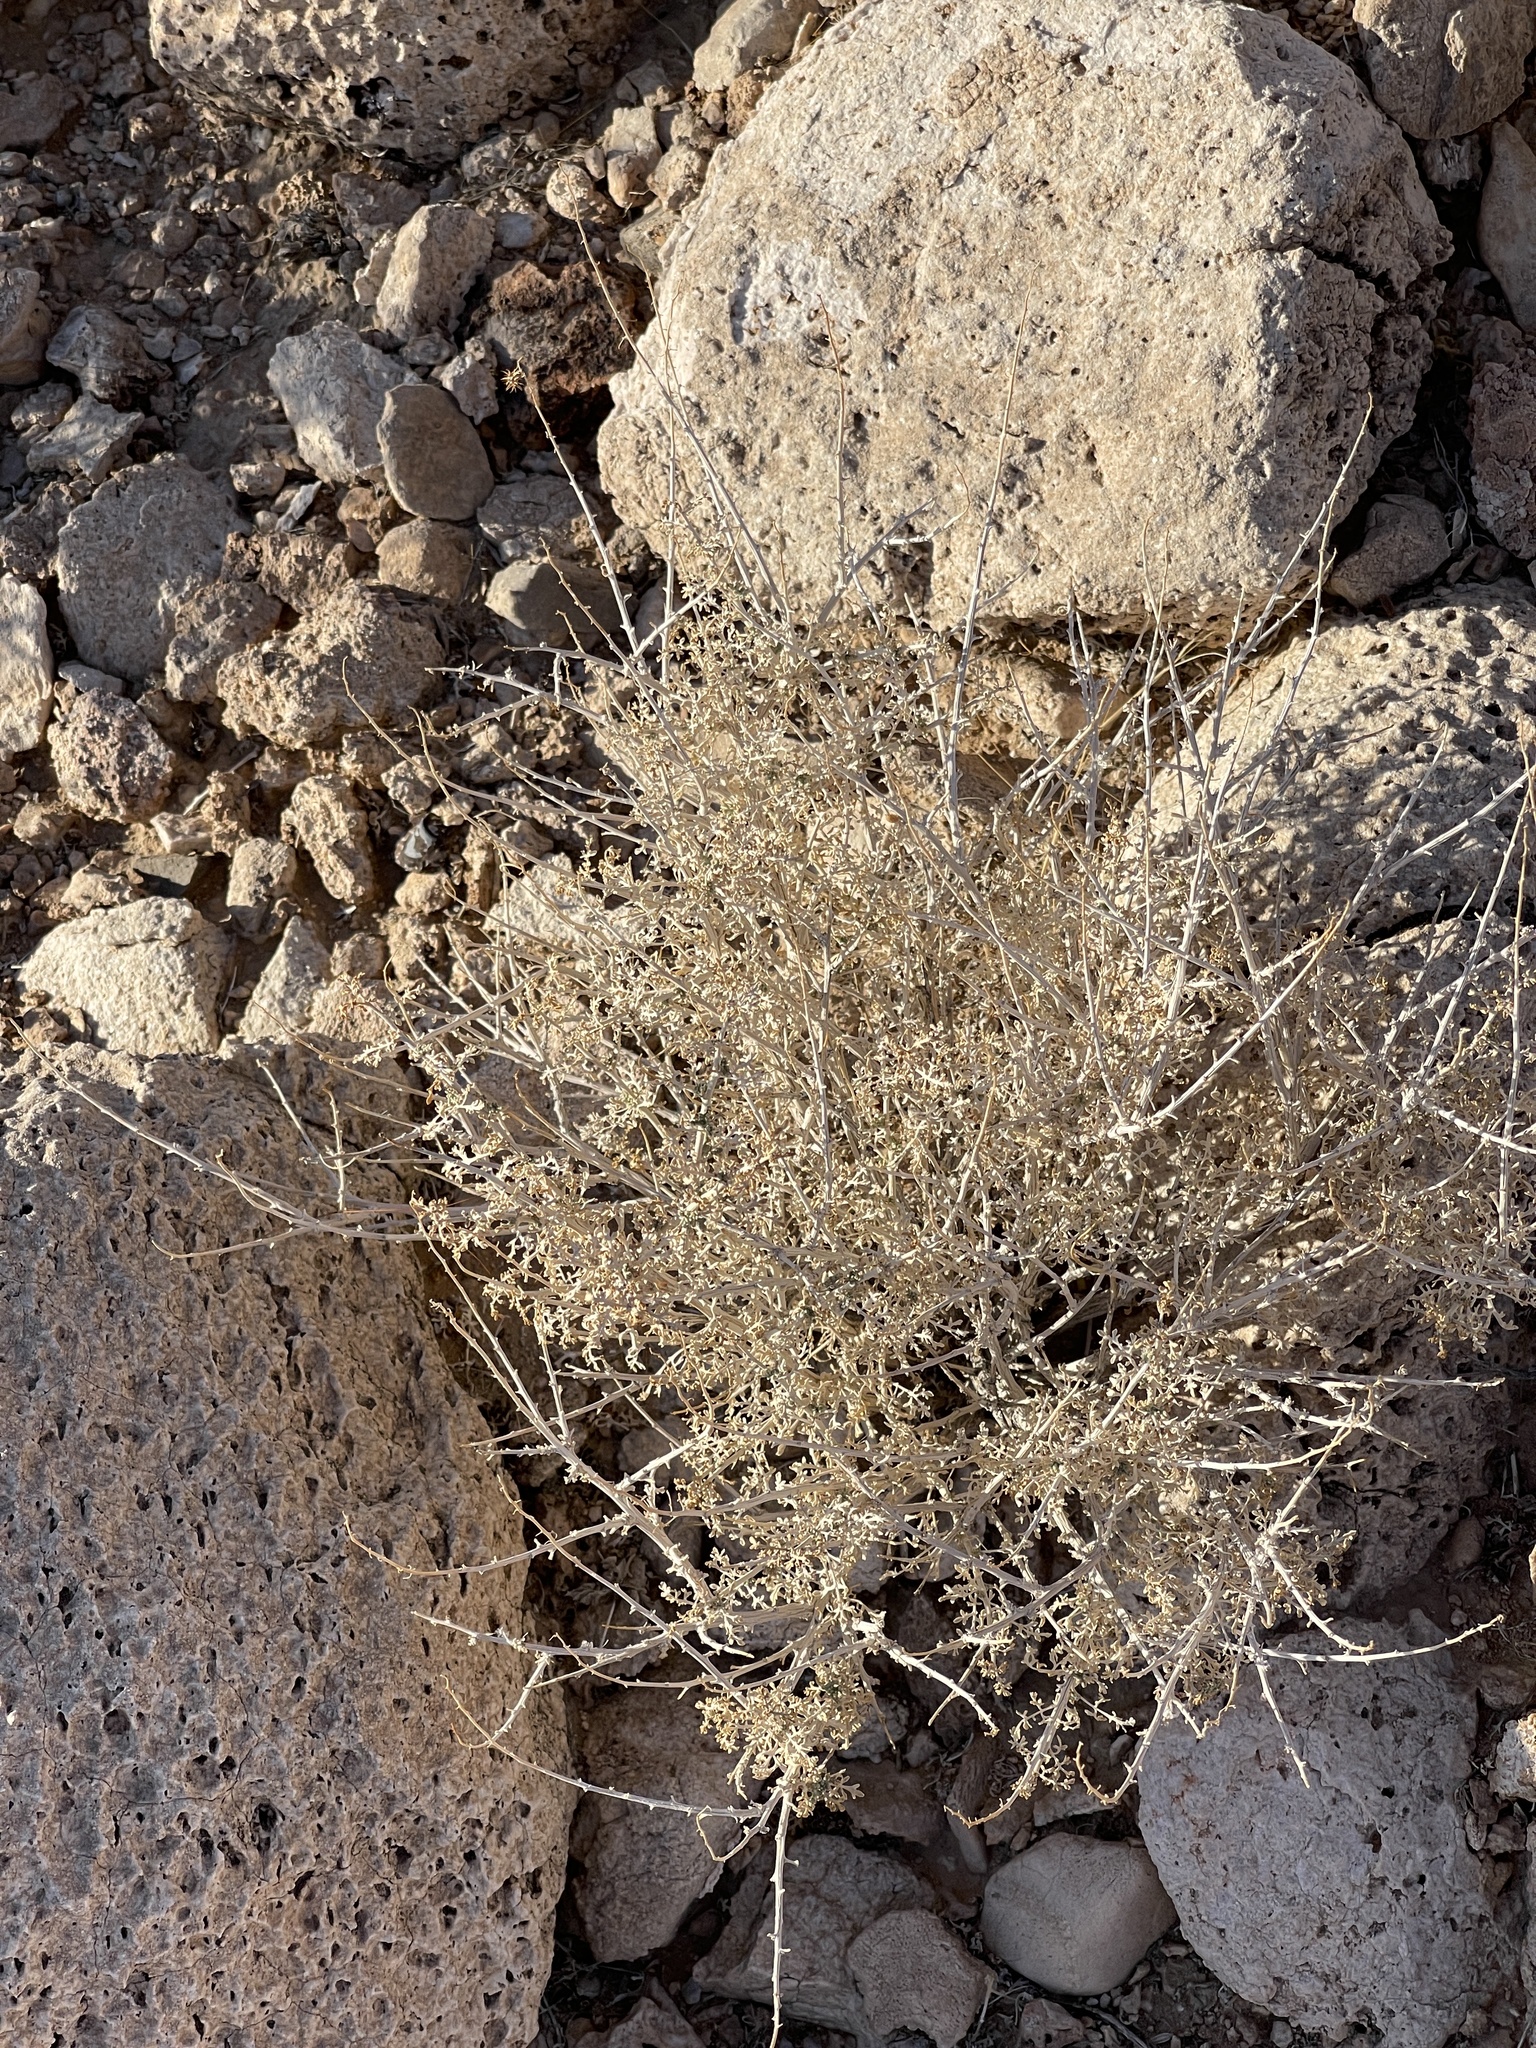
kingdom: Plantae
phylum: Tracheophyta
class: Magnoliopsida
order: Asterales
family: Asteraceae
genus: Ambrosia
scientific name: Ambrosia dumosa
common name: Bur-sage
